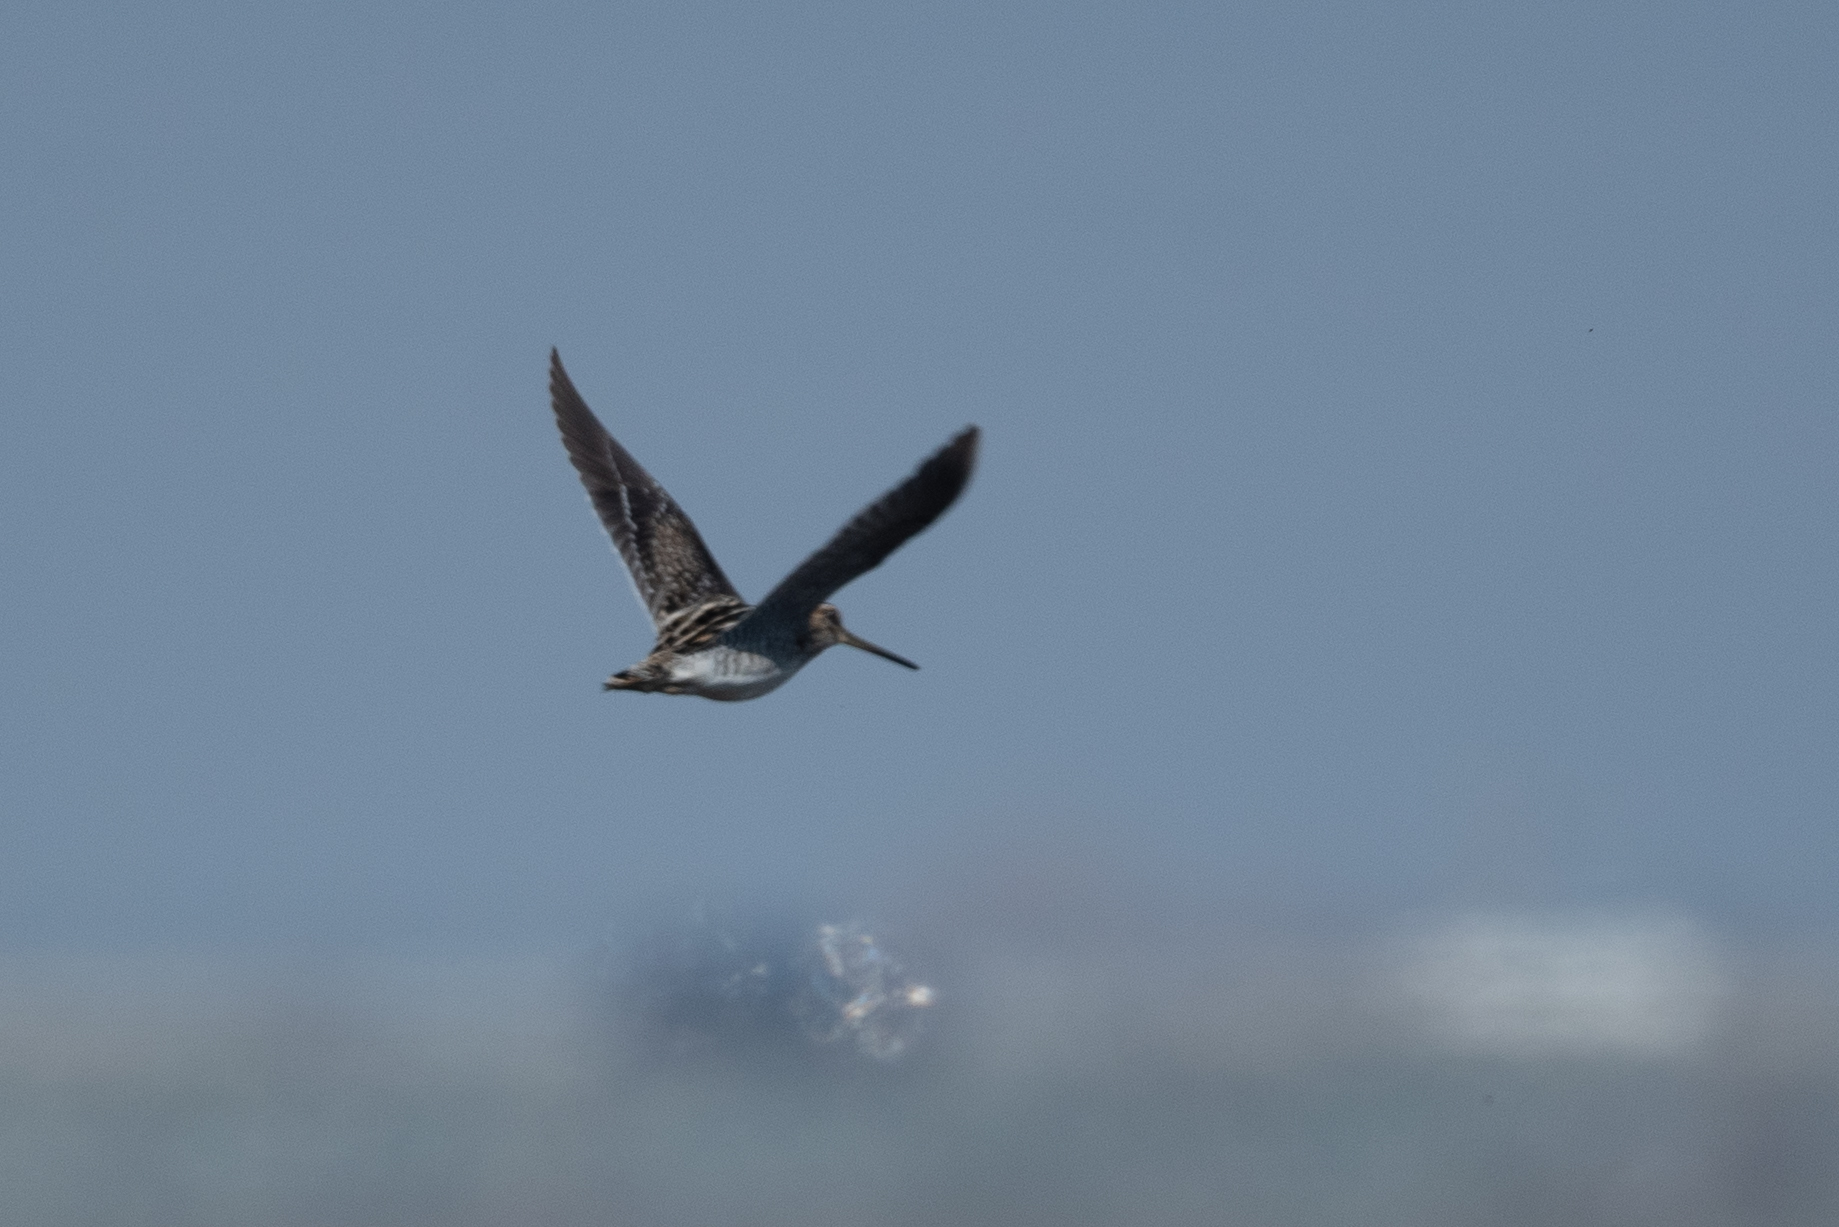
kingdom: Animalia
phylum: Chordata
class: Aves
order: Charadriiformes
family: Scolopacidae
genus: Gallinago
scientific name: Gallinago delicata
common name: Wilson's snipe
